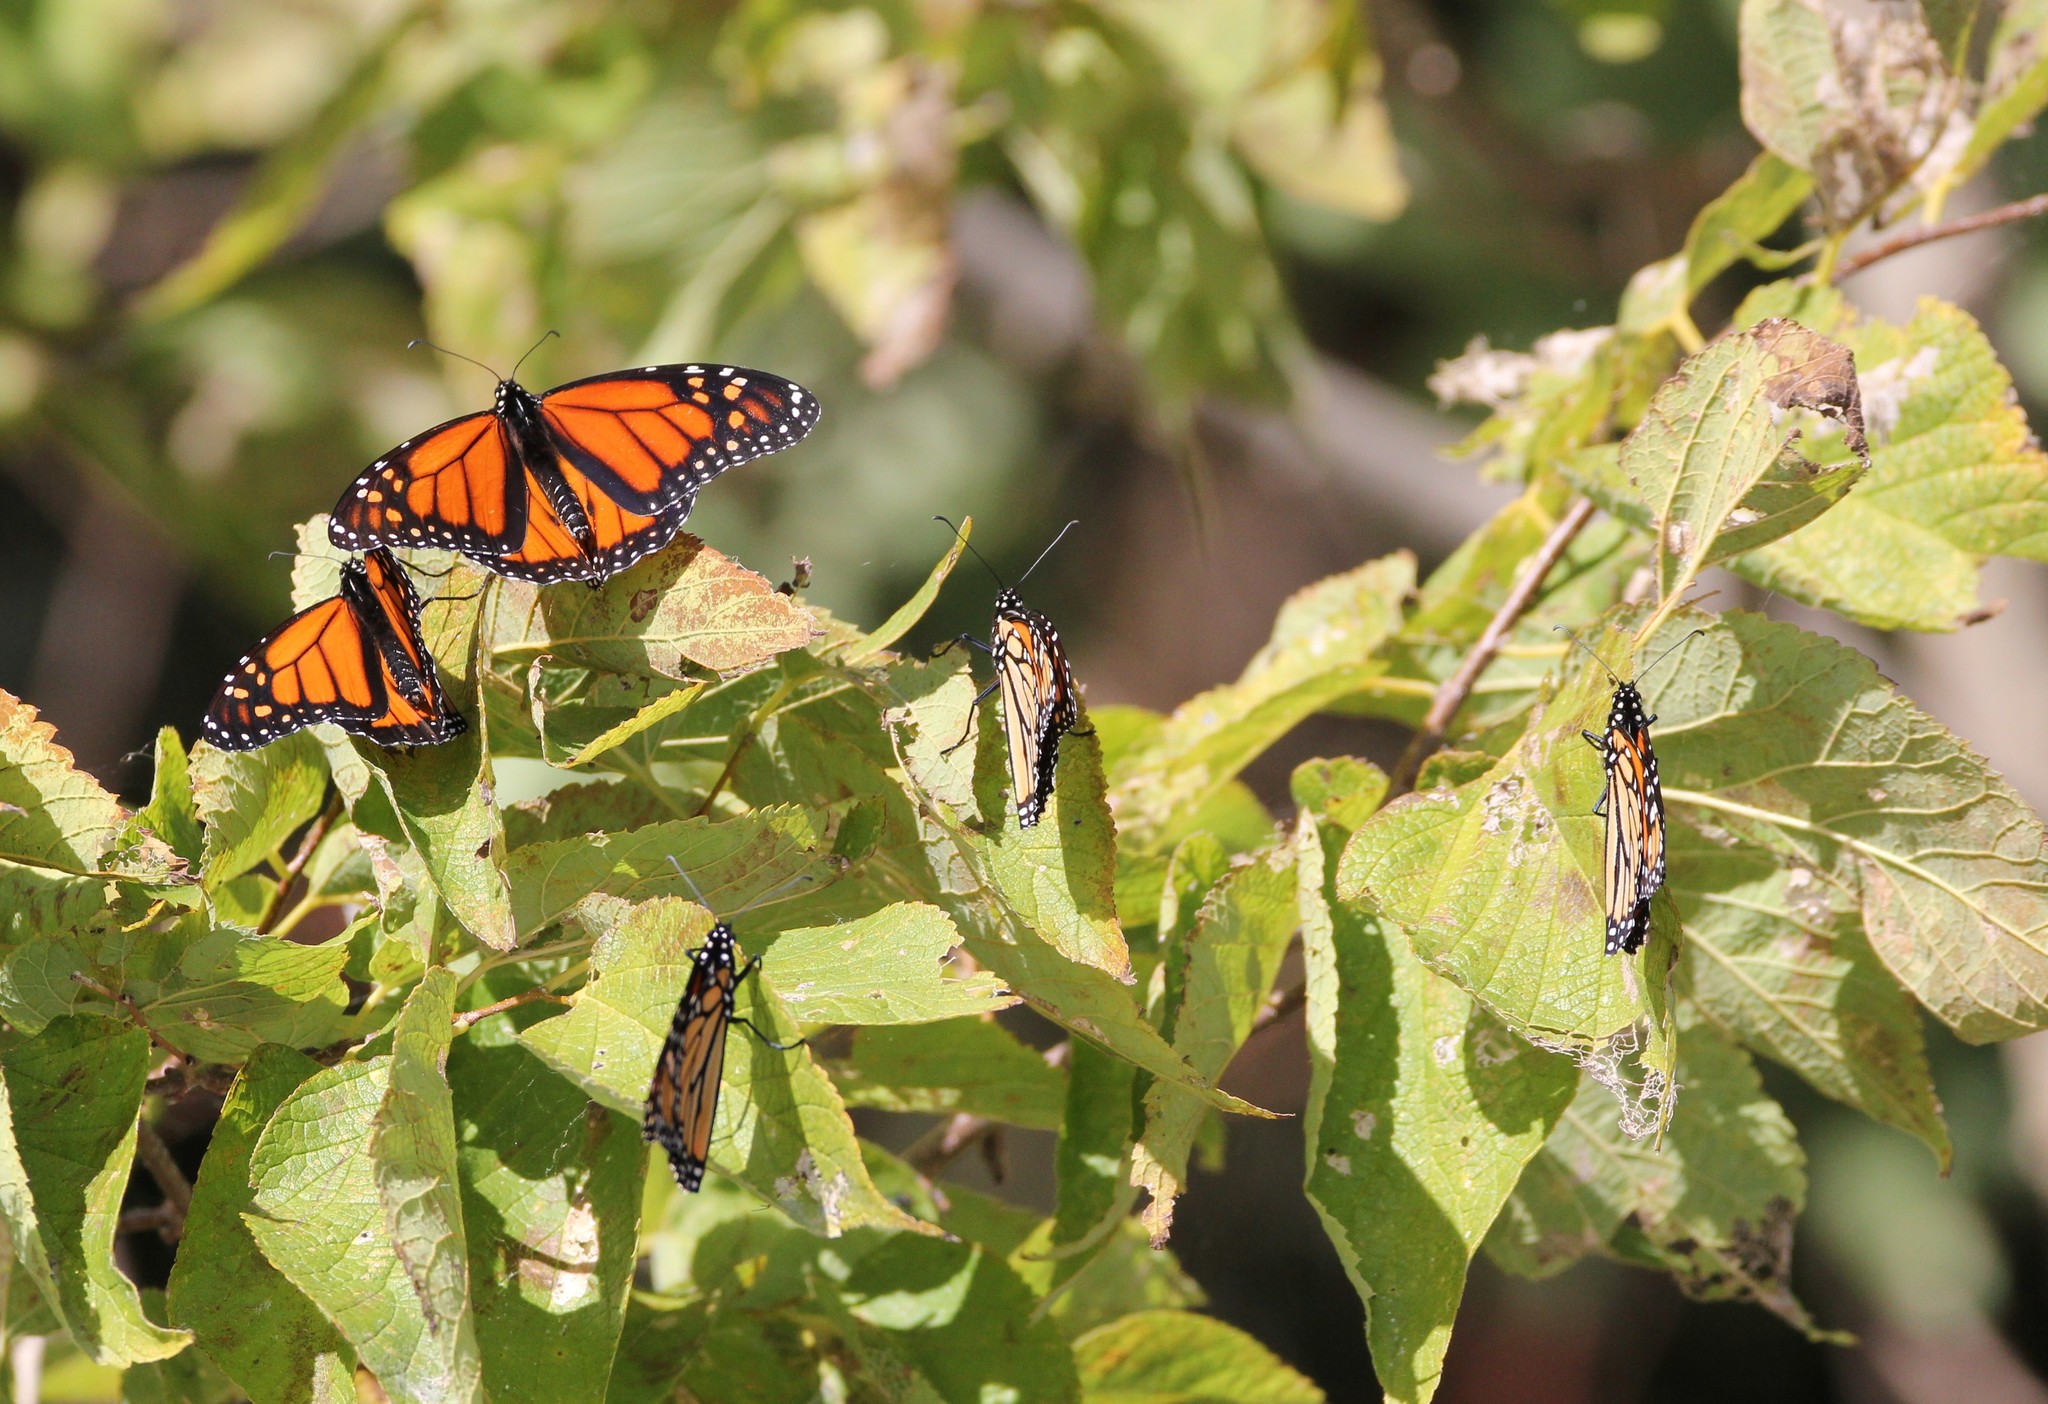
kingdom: Animalia
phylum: Arthropoda
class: Insecta
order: Lepidoptera
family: Nymphalidae
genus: Danaus
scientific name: Danaus plexippus
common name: Monarch
